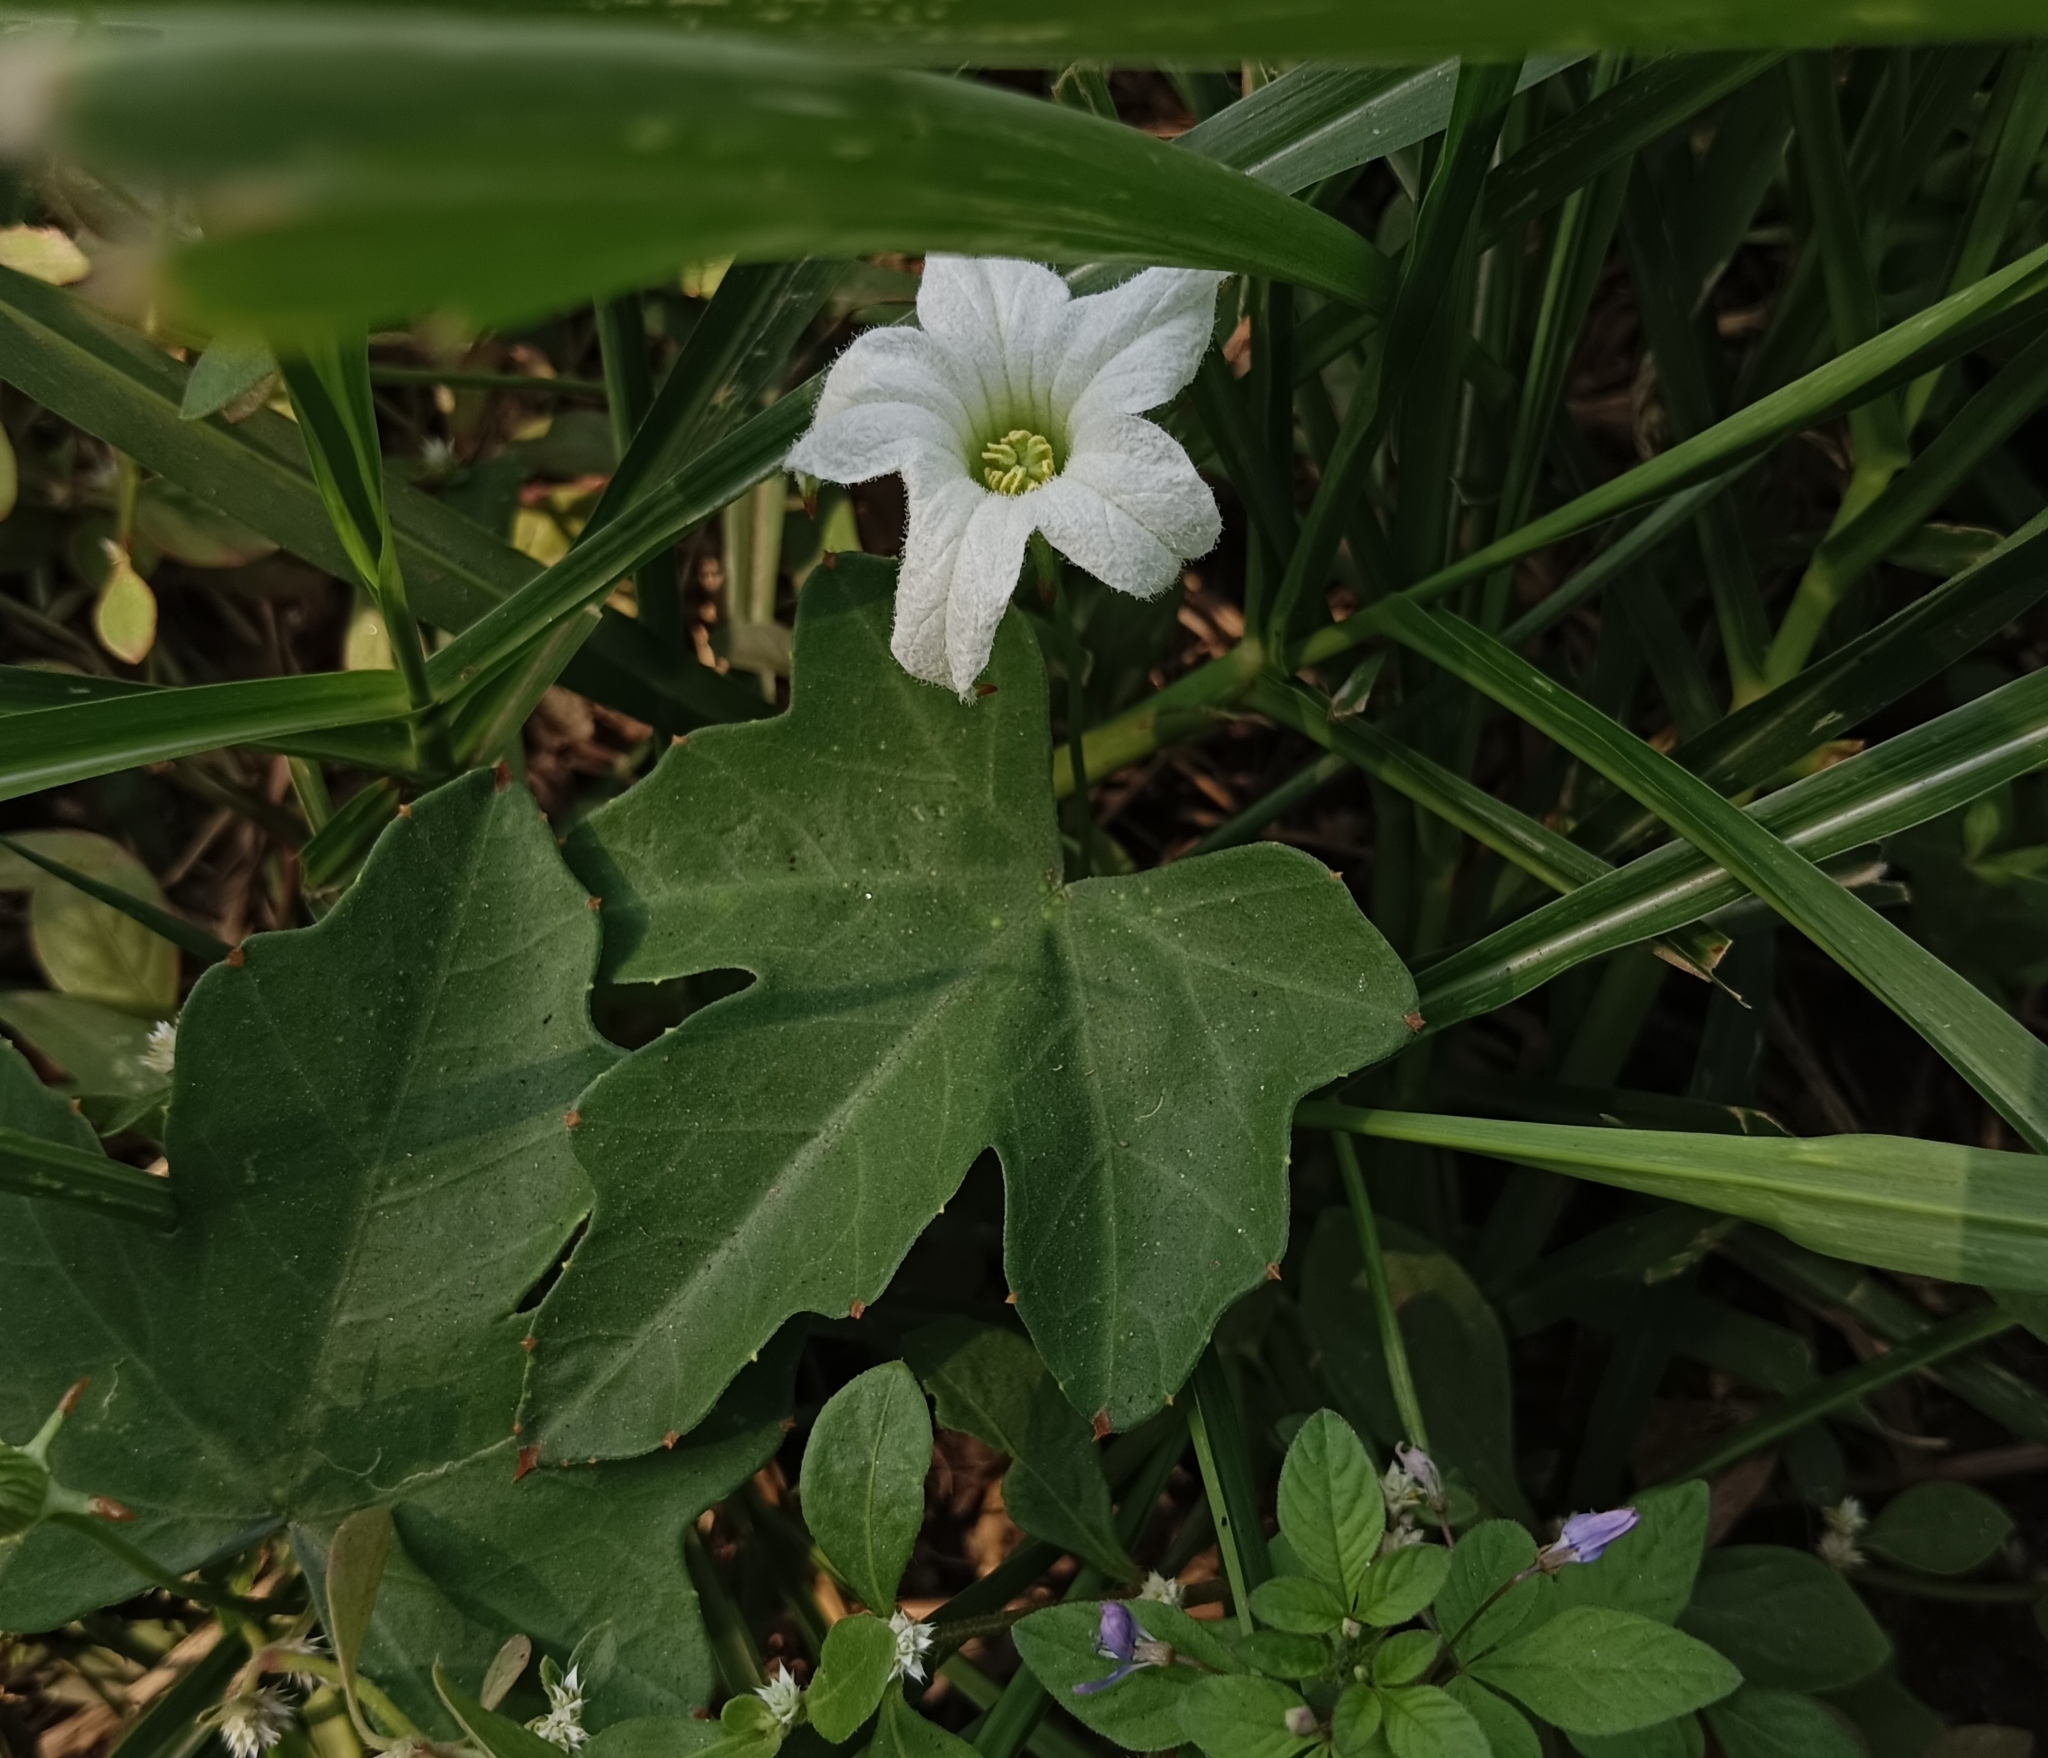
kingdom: Plantae
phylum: Tracheophyta
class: Magnoliopsida
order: Cucurbitales
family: Cucurbitaceae
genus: Coccinia
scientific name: Coccinia grandis
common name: Ivy gourd
